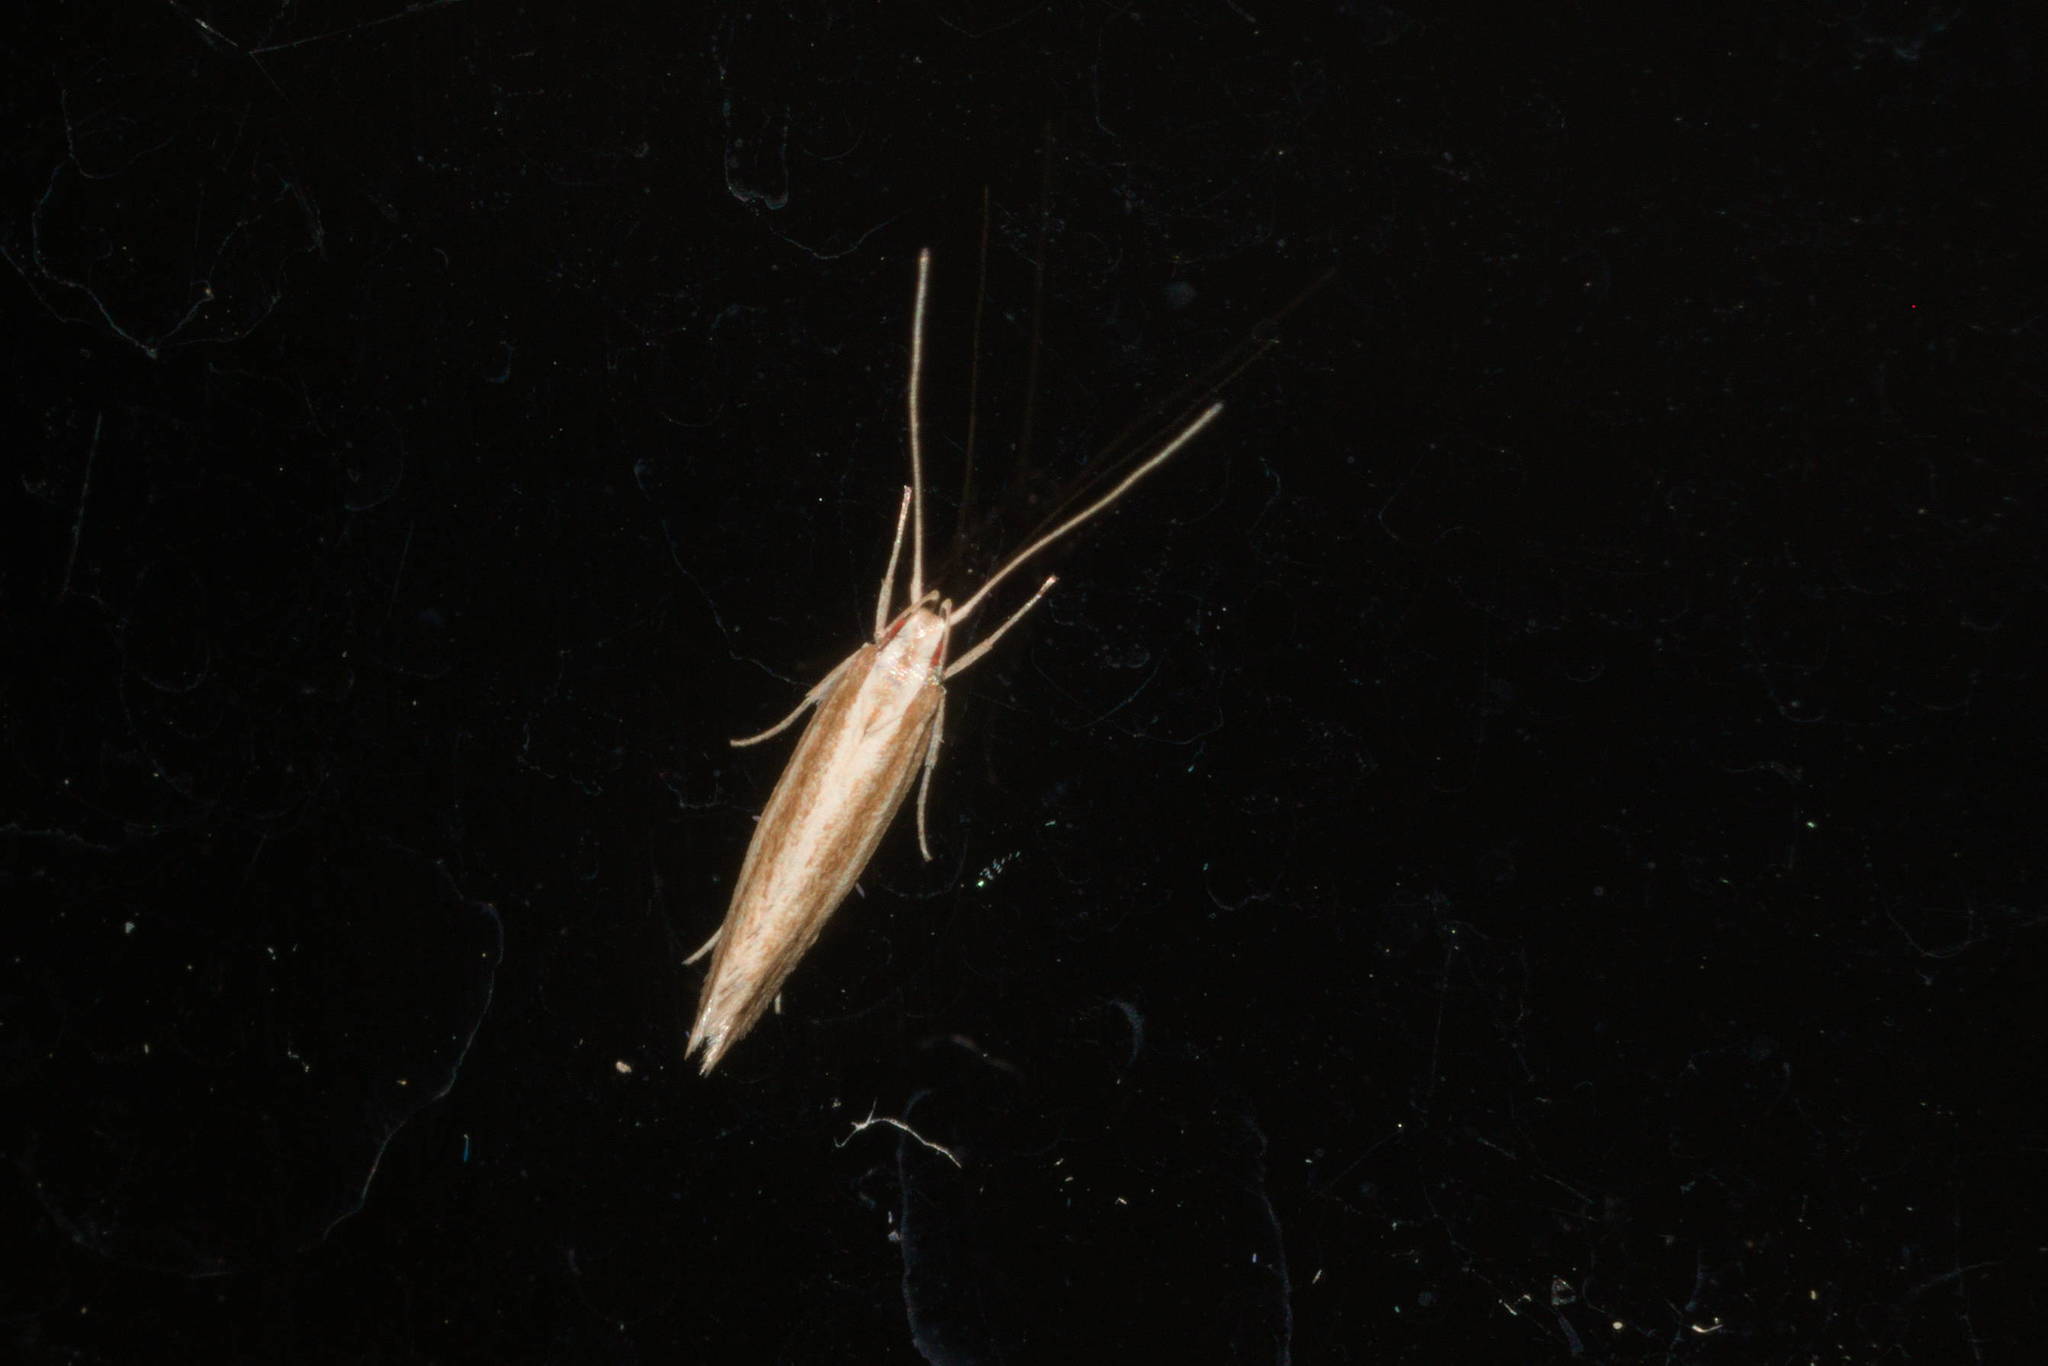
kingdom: Animalia
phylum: Arthropoda
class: Insecta
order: Lepidoptera
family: Cosmopterigidae
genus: Asymphorodes
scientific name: Asymphorodes
